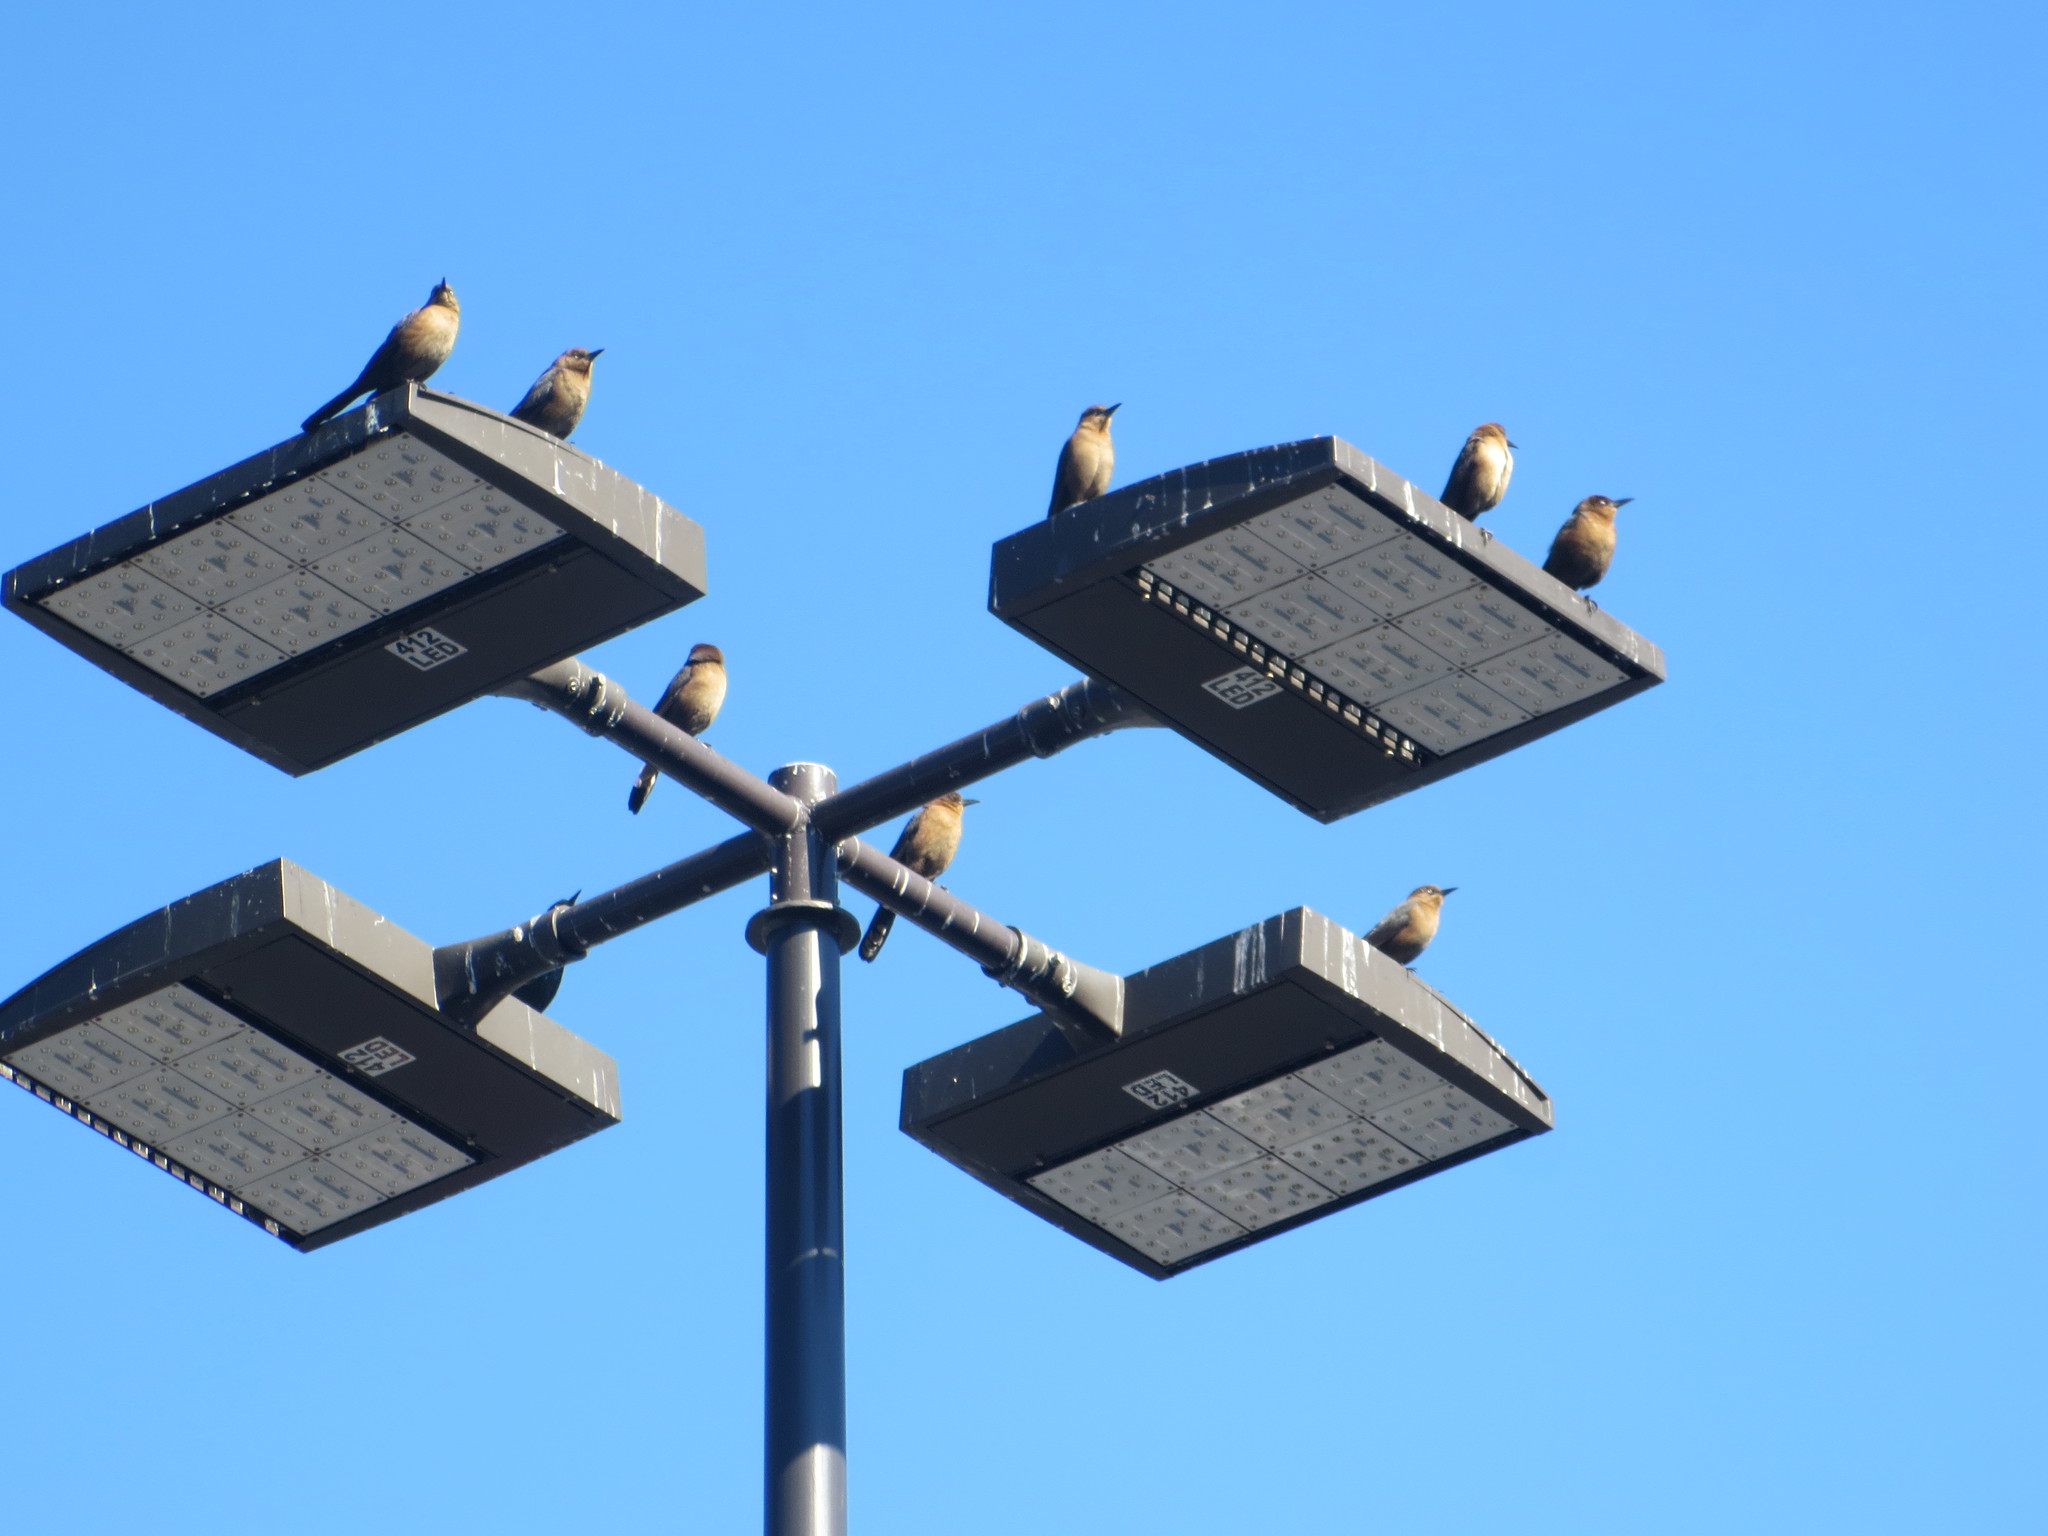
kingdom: Animalia
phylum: Chordata
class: Aves
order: Passeriformes
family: Icteridae
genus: Quiscalus
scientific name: Quiscalus major
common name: Boat-tailed grackle
